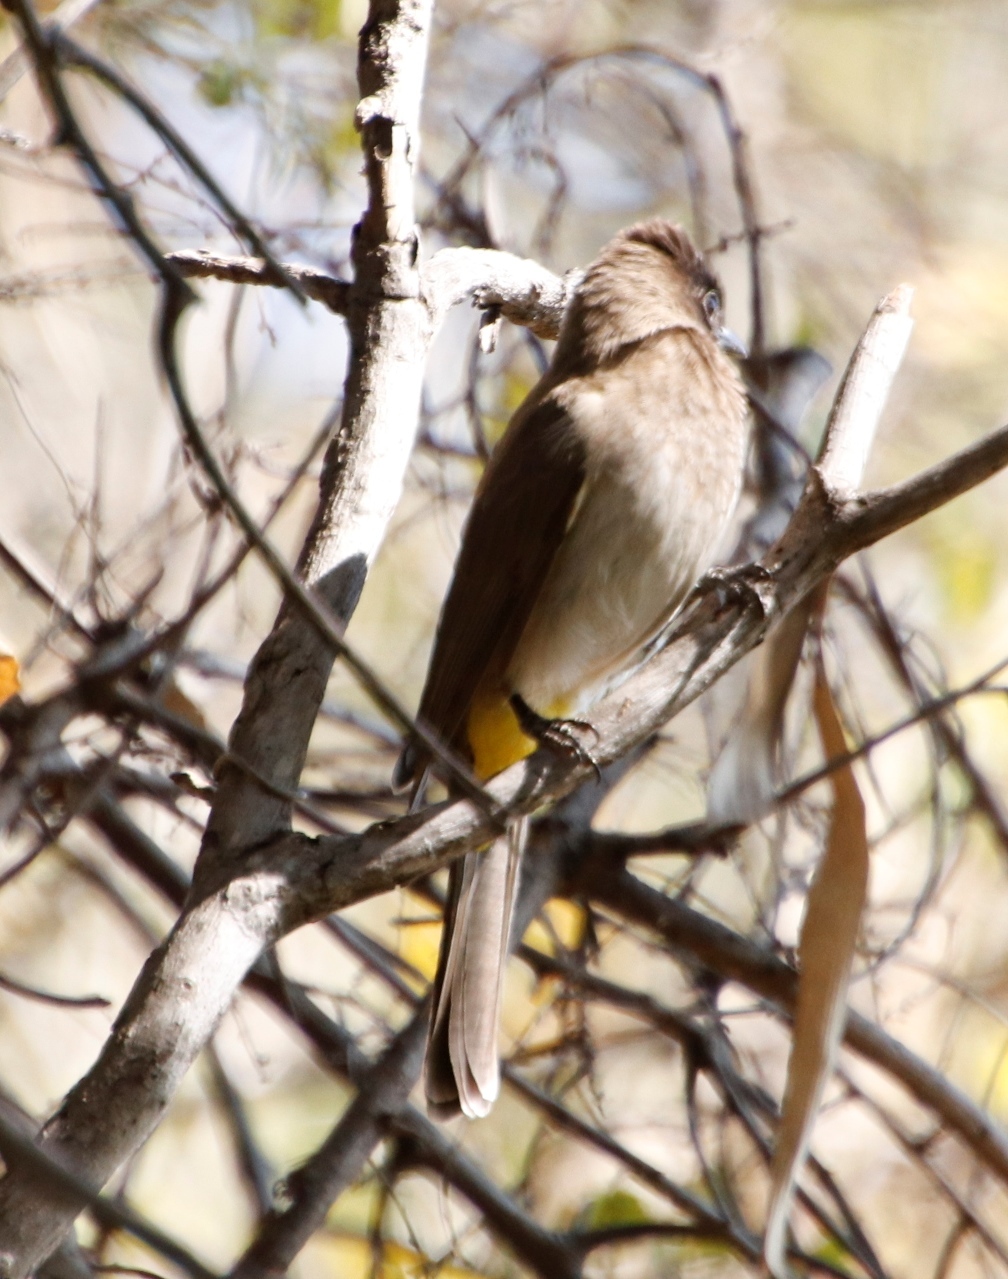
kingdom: Animalia
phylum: Chordata
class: Aves
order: Passeriformes
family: Pycnonotidae
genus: Pycnonotus
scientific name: Pycnonotus barbatus
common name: Common bulbul
